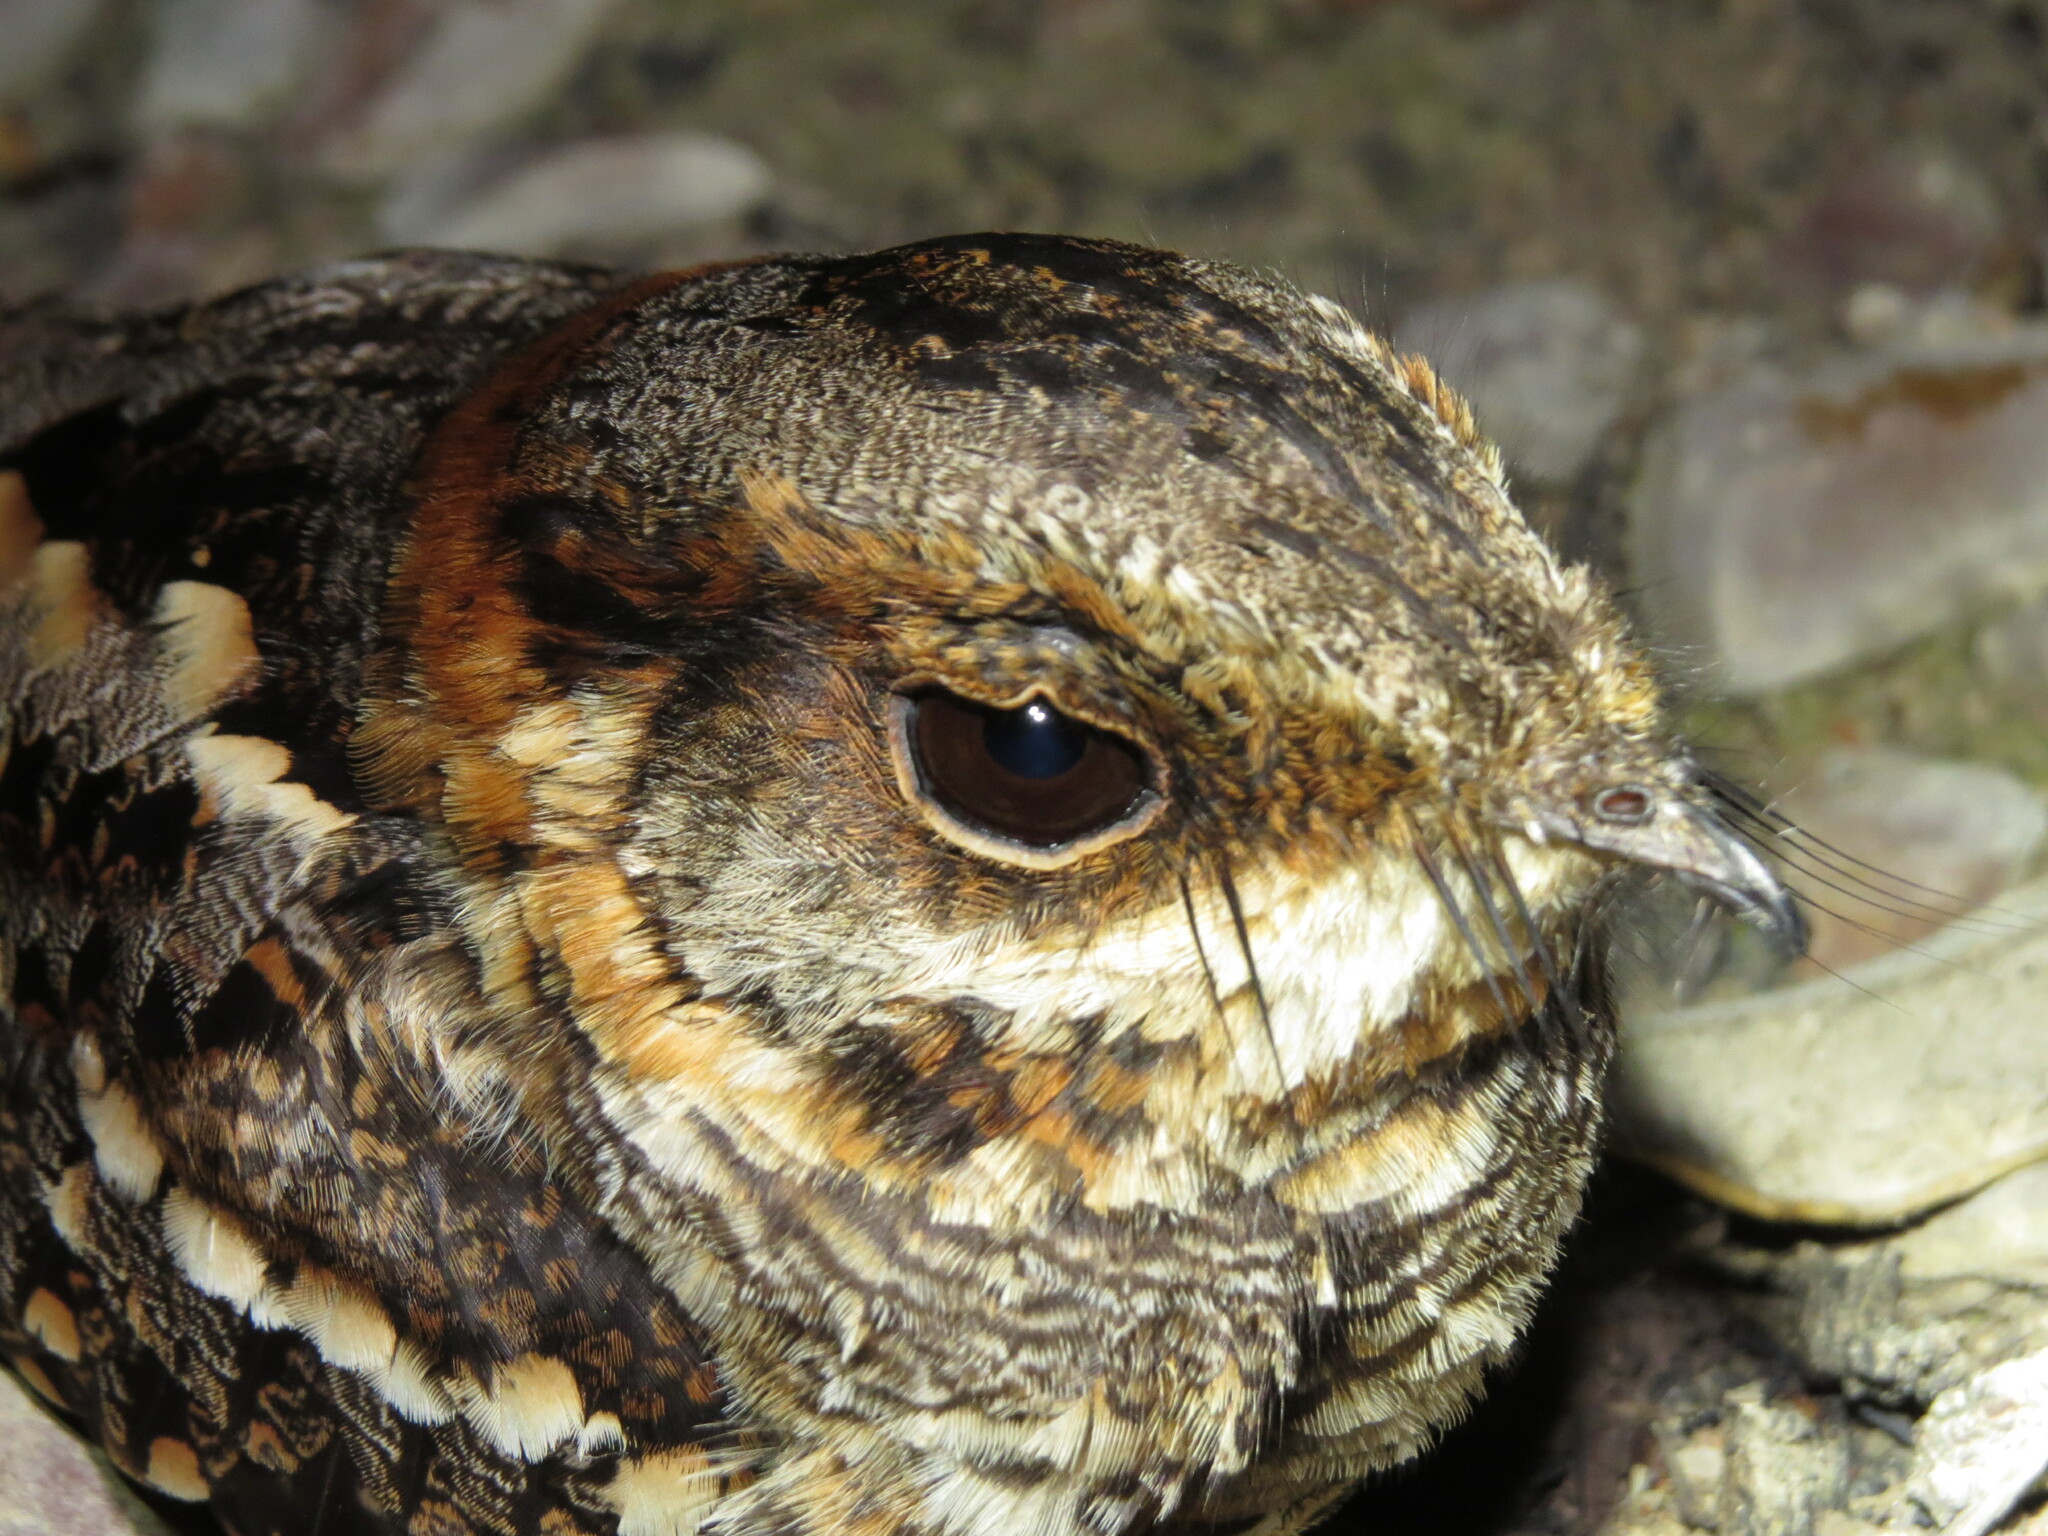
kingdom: Animalia
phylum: Chordata
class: Aves
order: Caprimulgiformes
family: Caprimulgidae
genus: Hydropsalis
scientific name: Hydropsalis torquata
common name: Scissor-tailed nightjar
